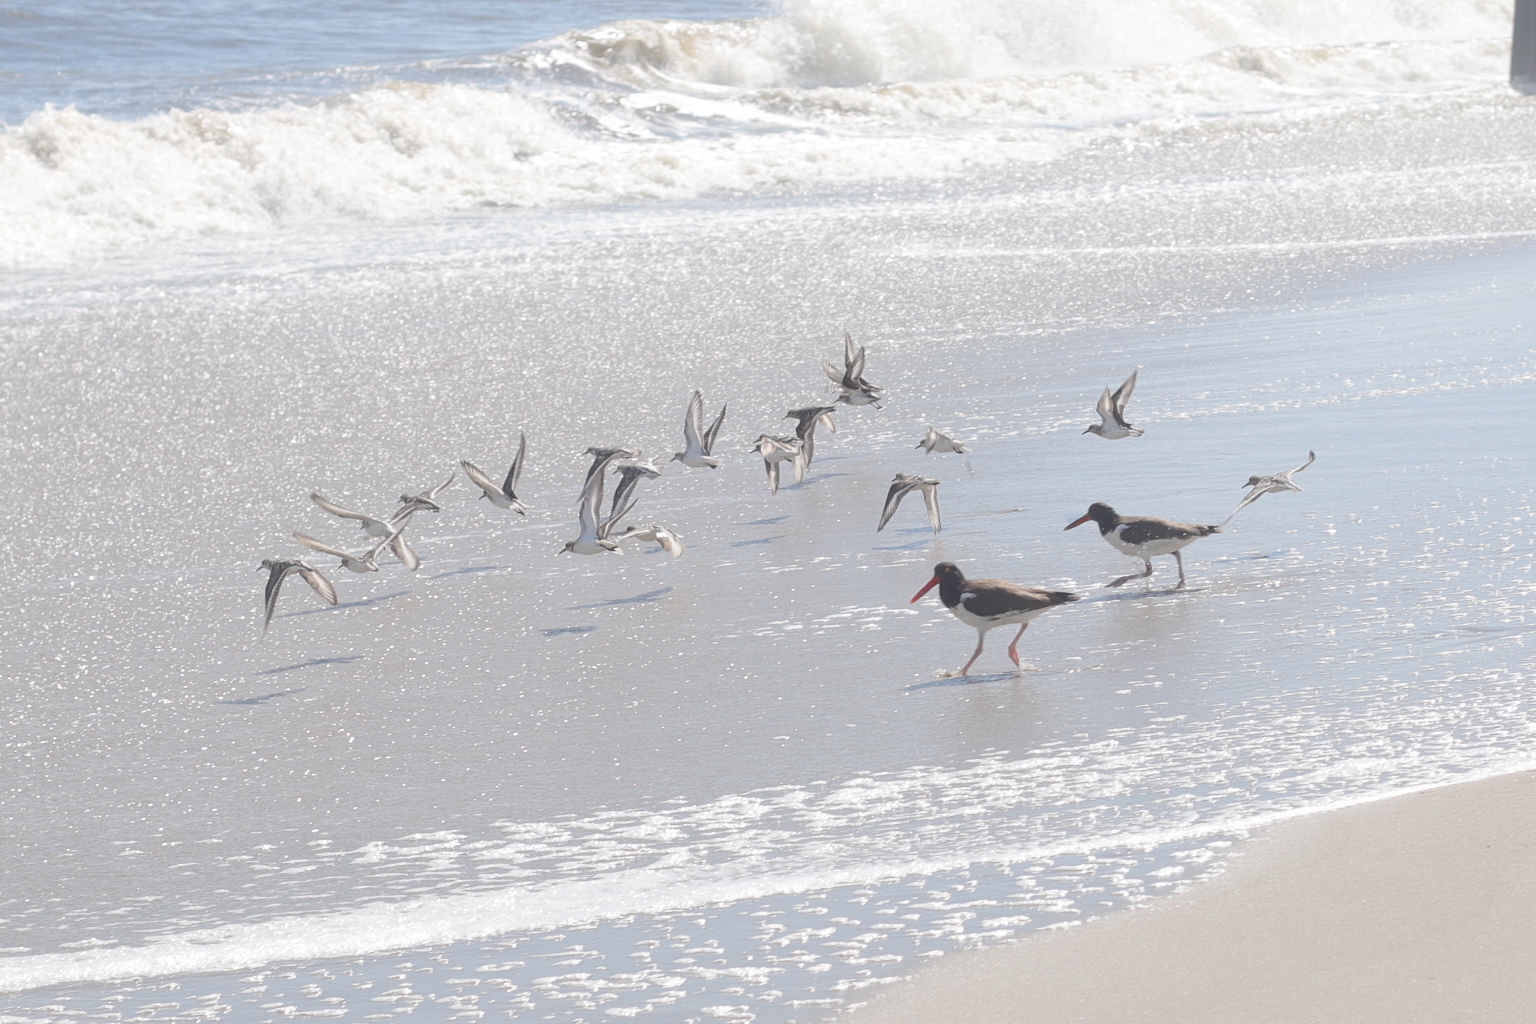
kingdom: Animalia
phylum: Chordata
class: Aves
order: Charadriiformes
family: Scolopacidae
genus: Calidris
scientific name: Calidris alba
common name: Sanderling
